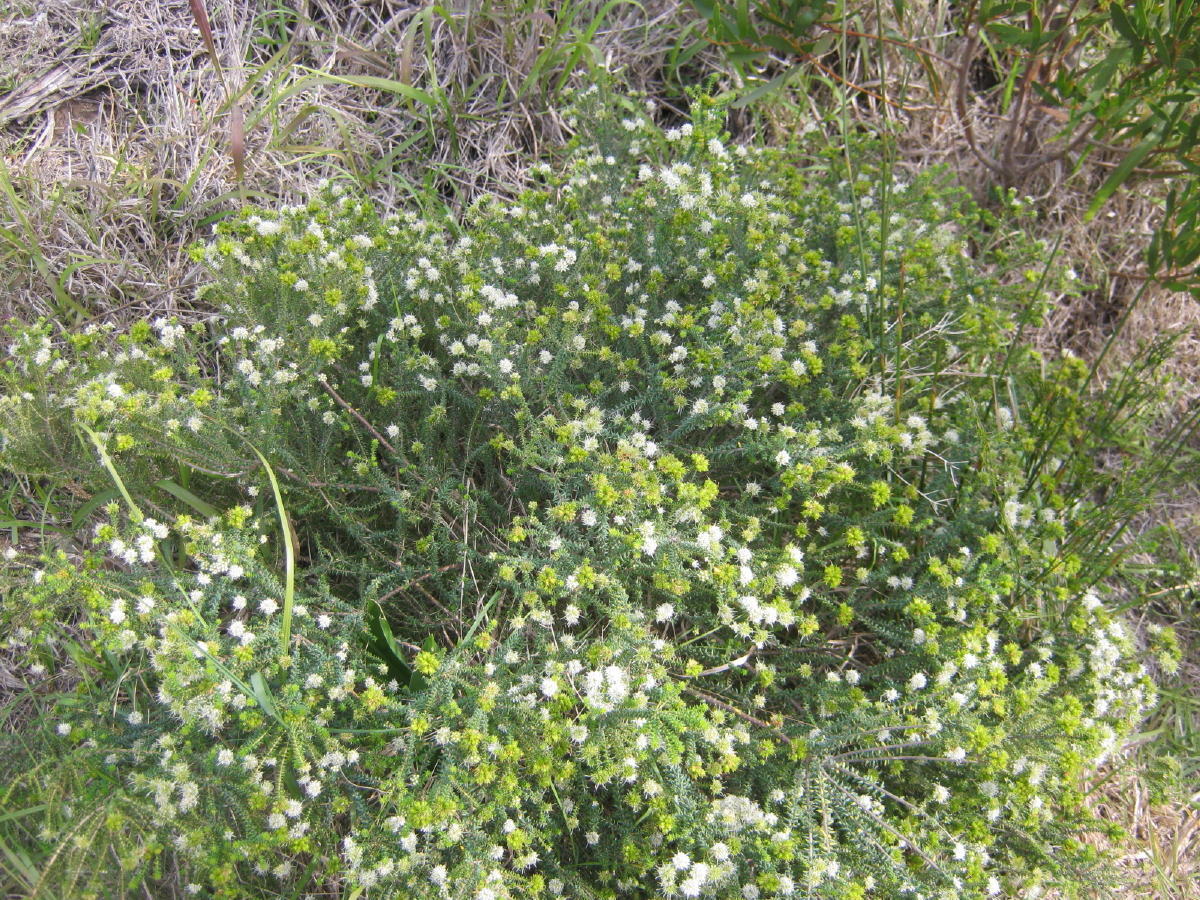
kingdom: Plantae
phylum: Tracheophyta
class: Magnoliopsida
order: Sapindales
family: Rutaceae
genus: Agathosma
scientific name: Agathosma apiculata
